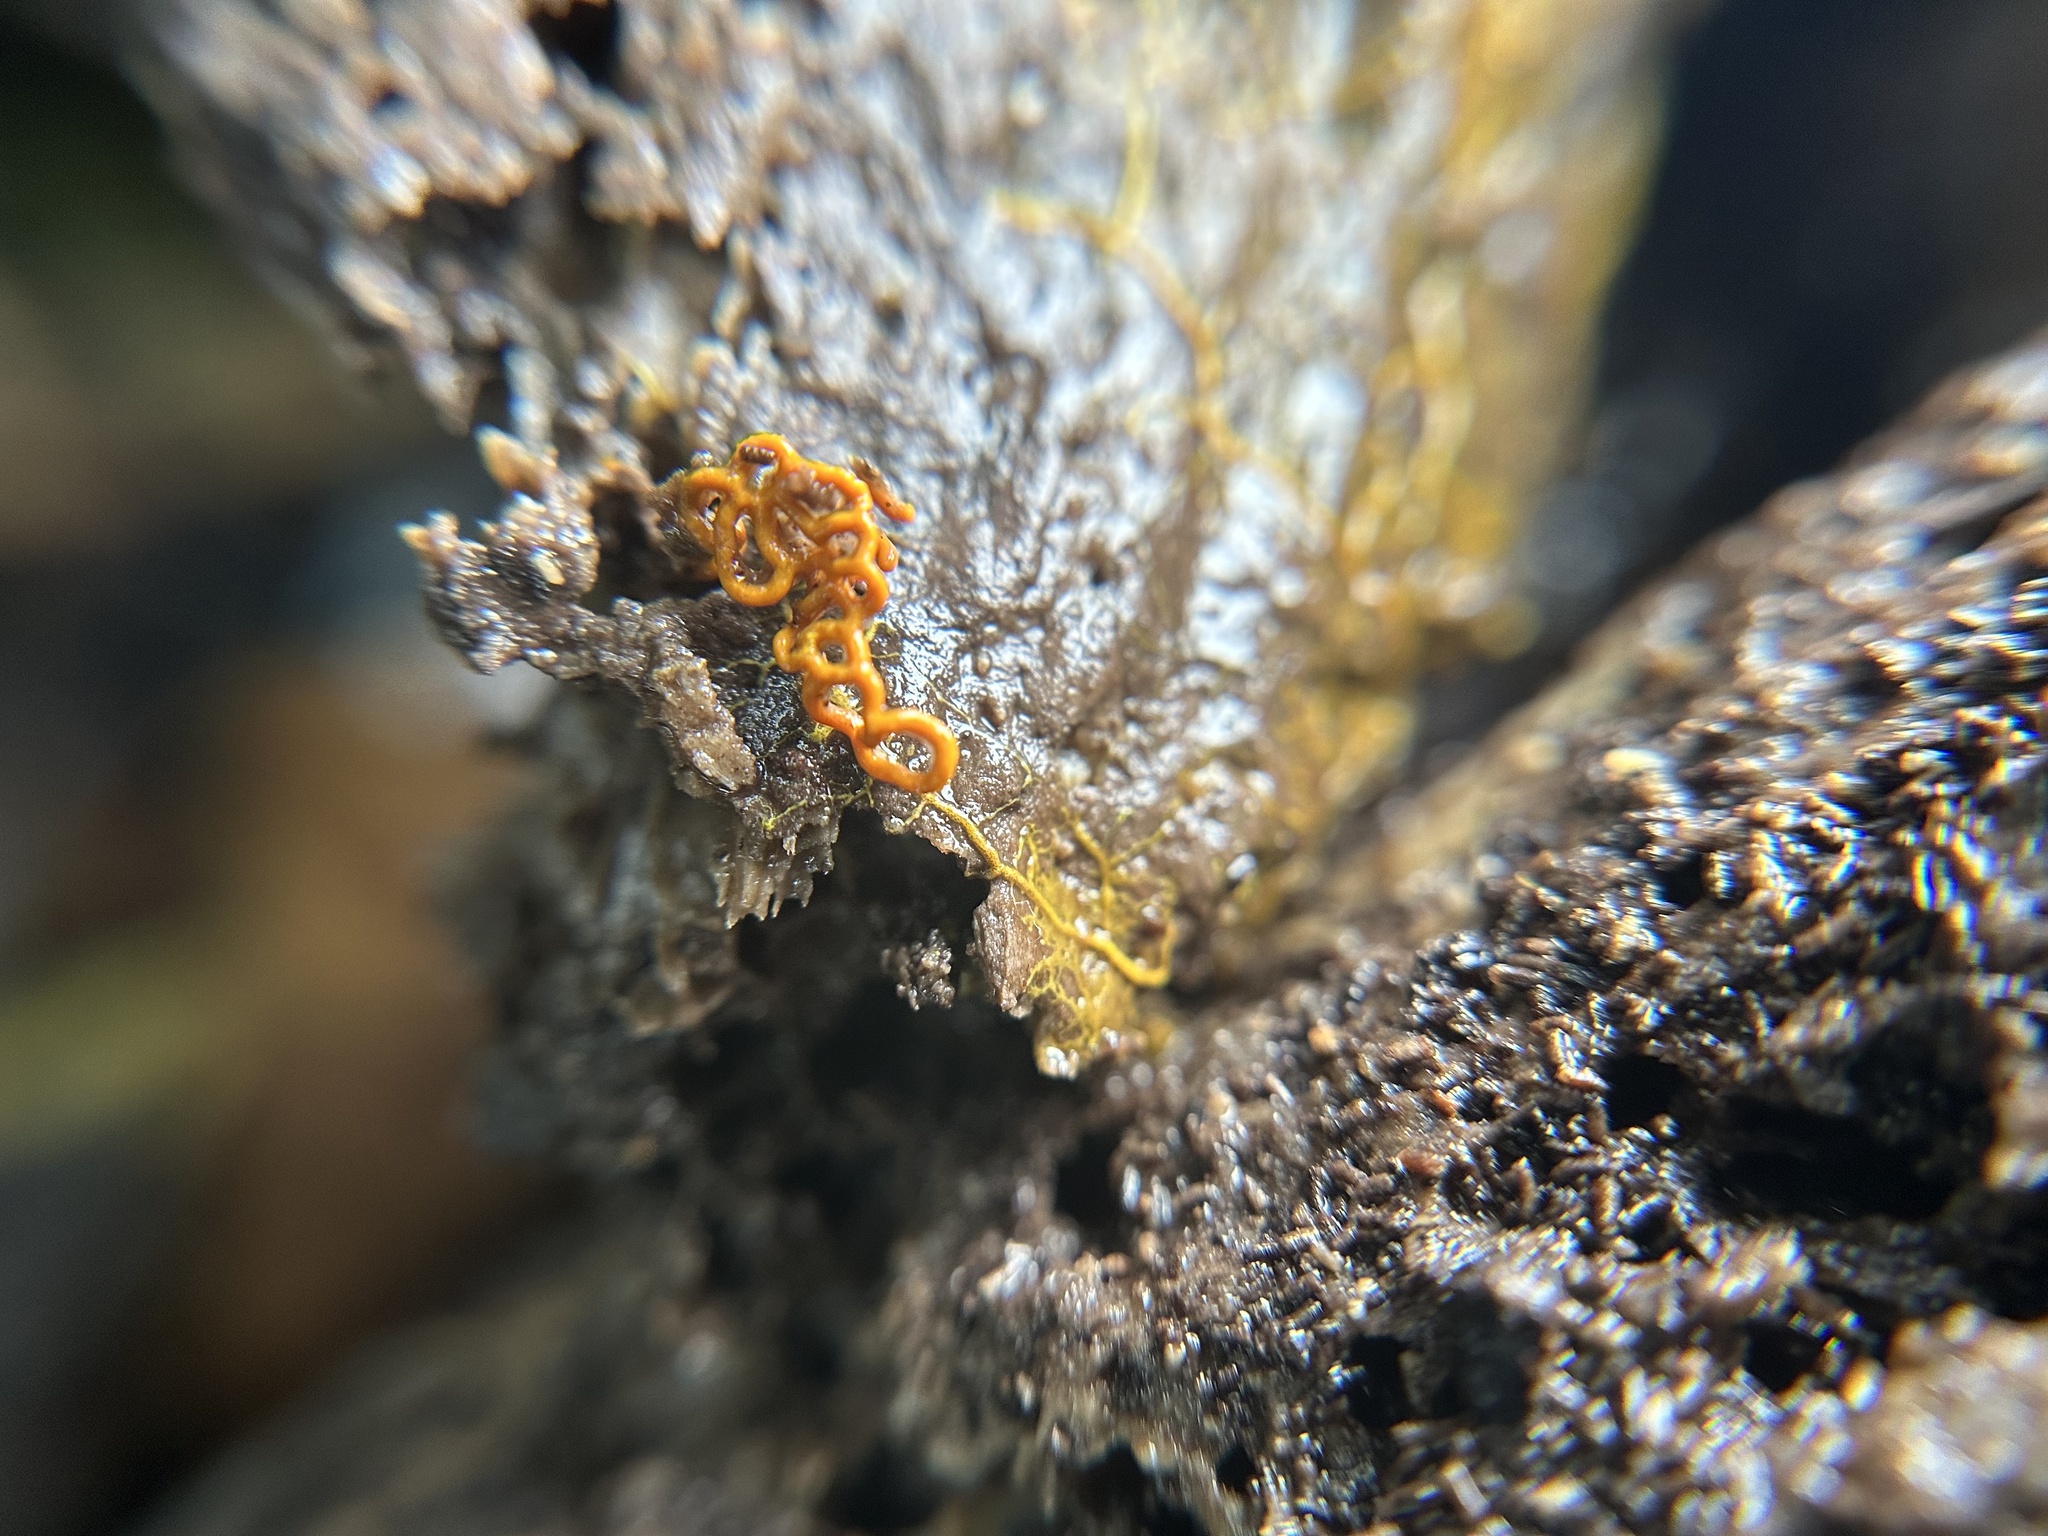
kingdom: Protozoa
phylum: Mycetozoa
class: Myxomycetes
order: Trichiales
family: Arcyriaceae
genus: Hemitrichia
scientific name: Hemitrichia serpula
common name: Pretzel slime mold
